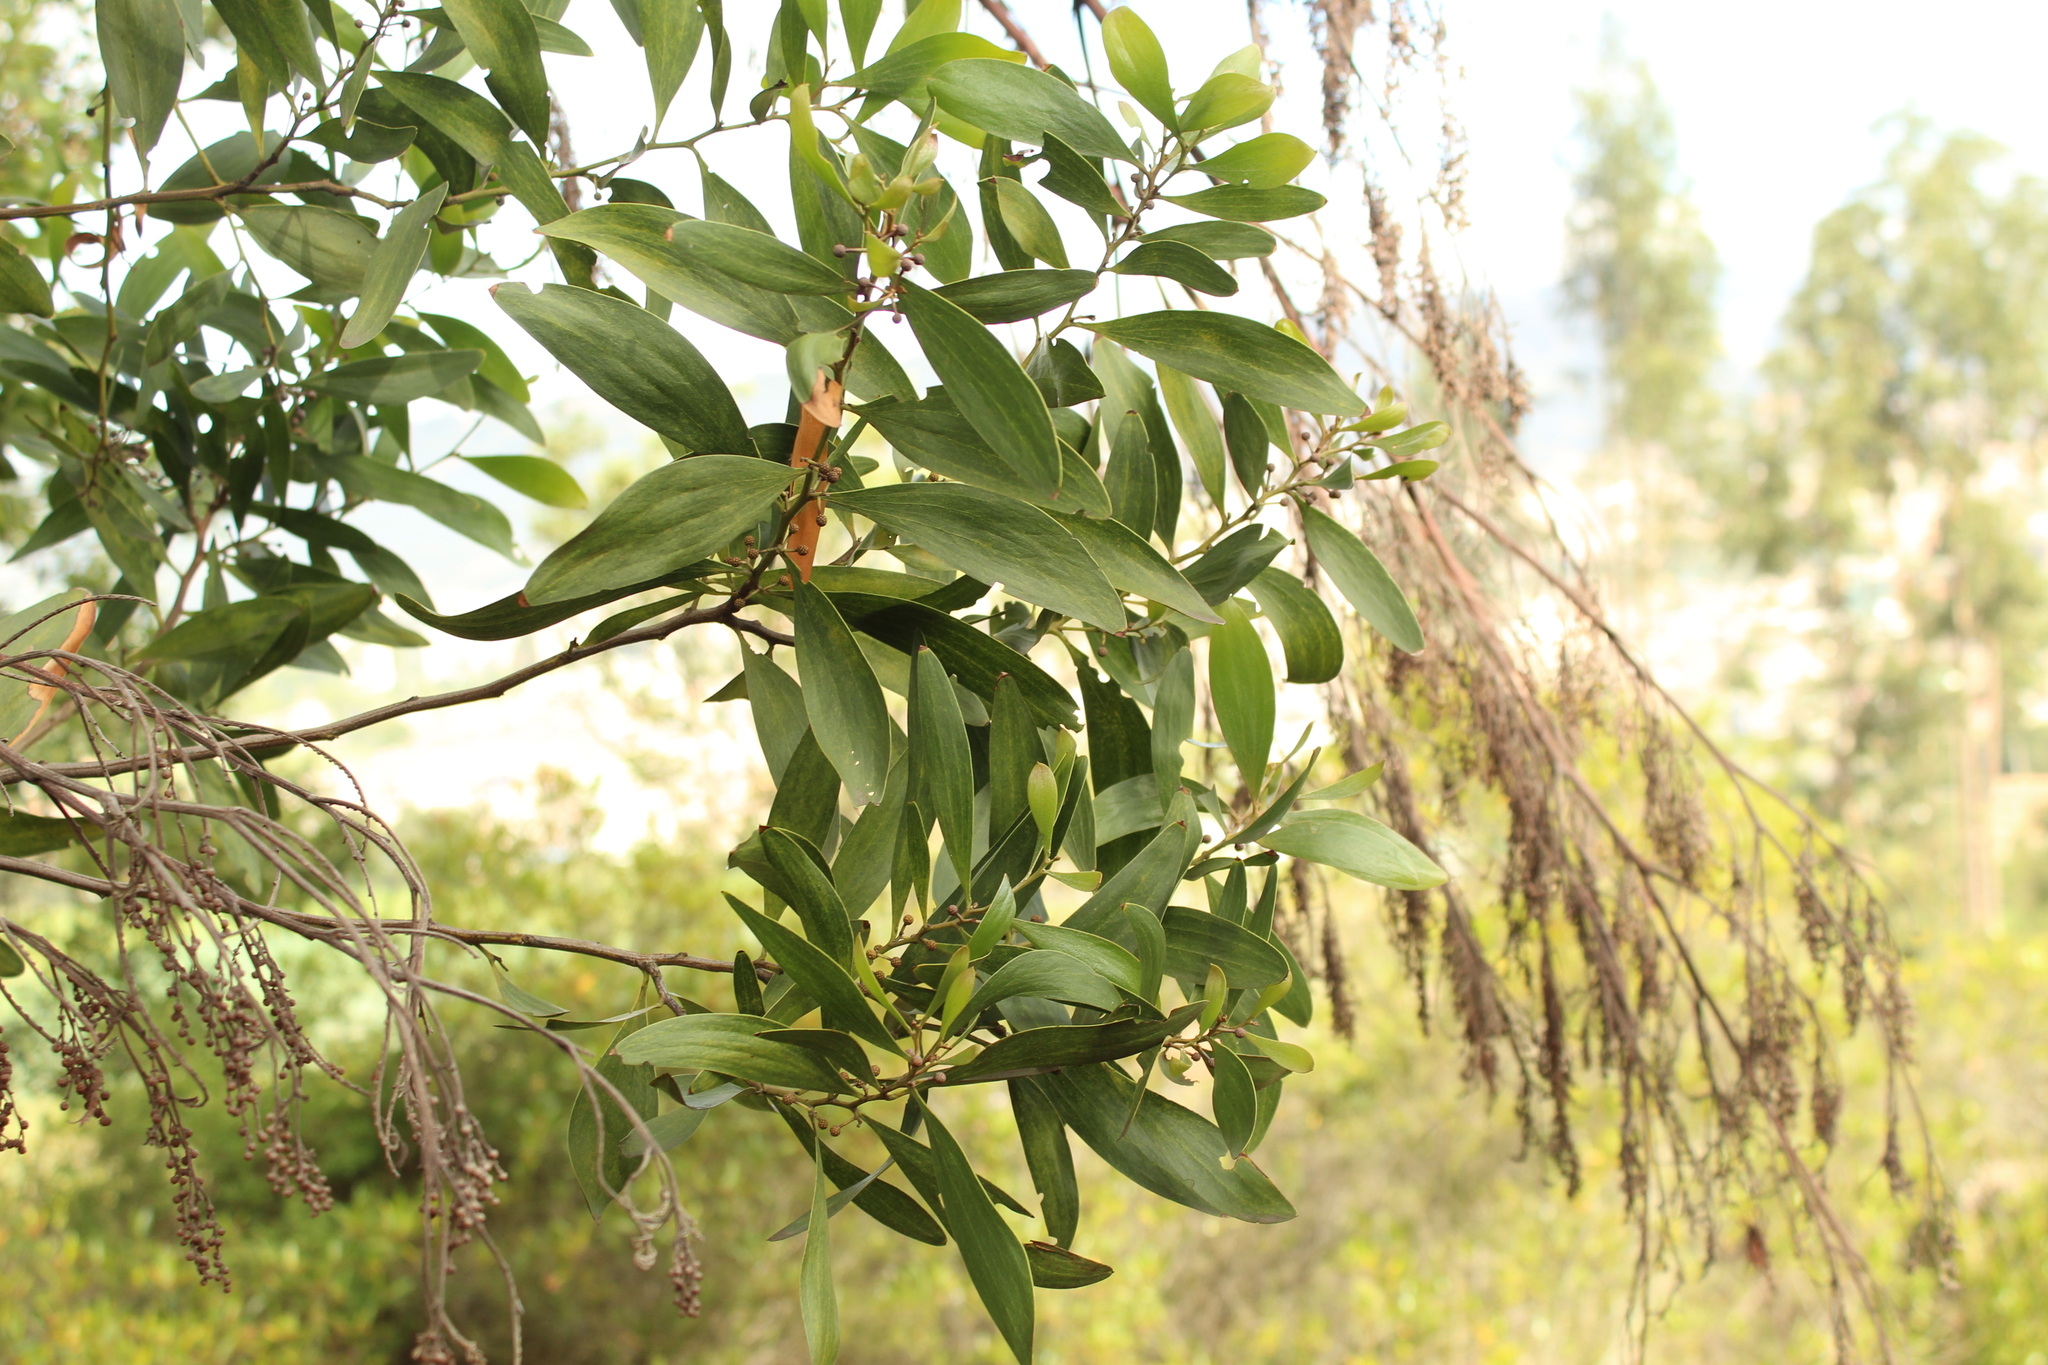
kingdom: Plantae
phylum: Tracheophyta
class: Magnoliopsida
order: Fabales
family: Fabaceae
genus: Acacia
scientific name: Acacia melanoxylon
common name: Blackwood
